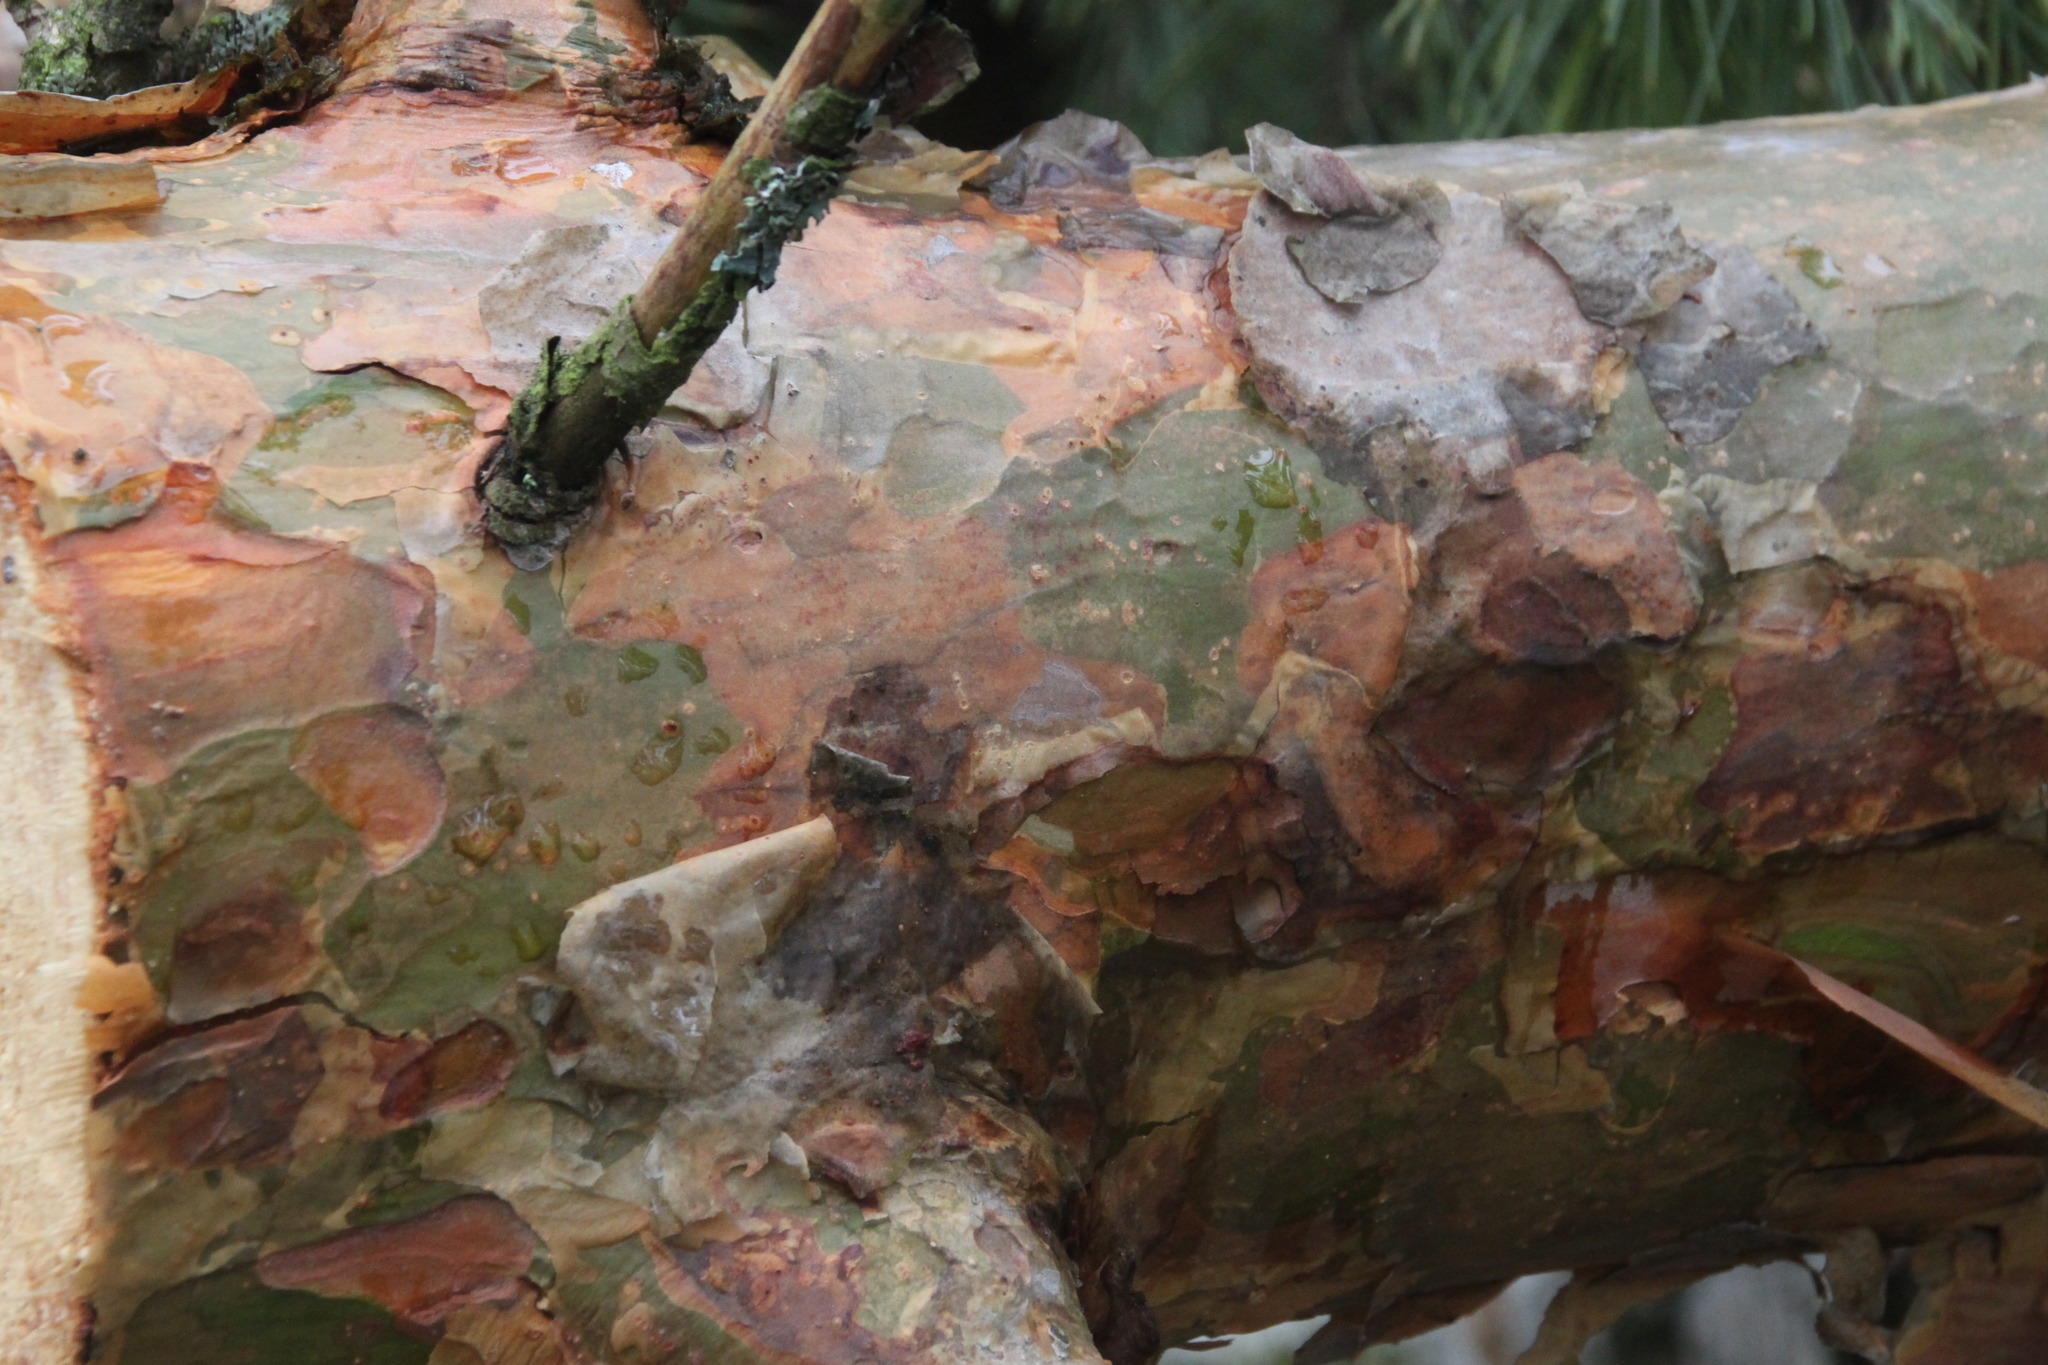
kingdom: Plantae
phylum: Tracheophyta
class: Pinopsida
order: Pinales
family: Pinaceae
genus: Pinus
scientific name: Pinus sylvestris
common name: Scots pine
